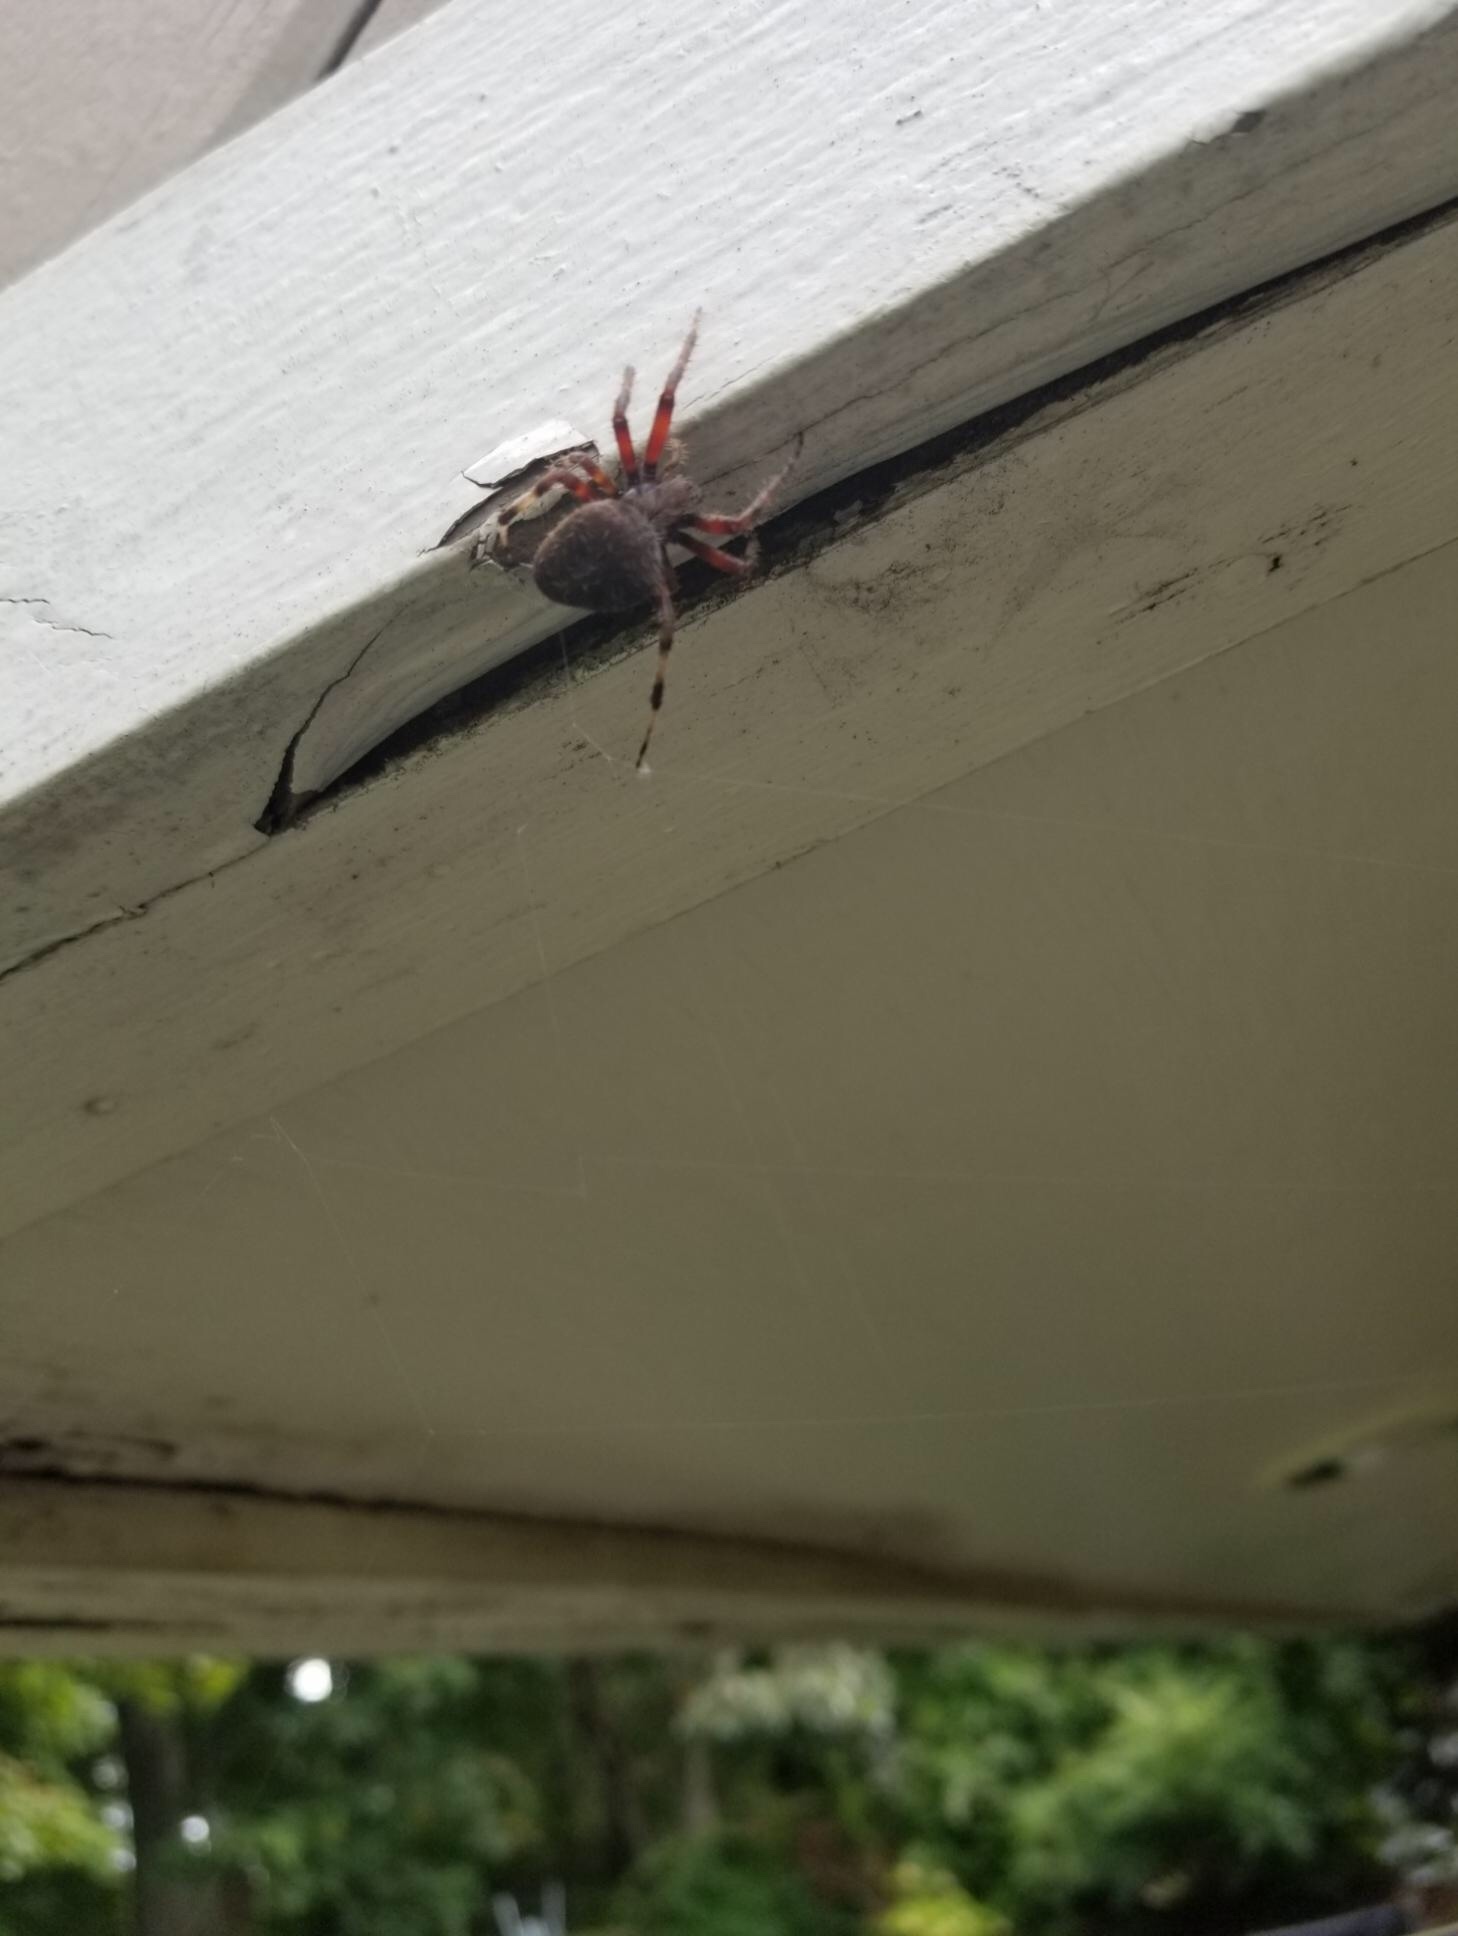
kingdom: Animalia
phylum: Arthropoda
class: Arachnida
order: Araneae
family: Araneidae
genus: Neoscona
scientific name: Neoscona crucifera
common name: Spotted orbweaver
